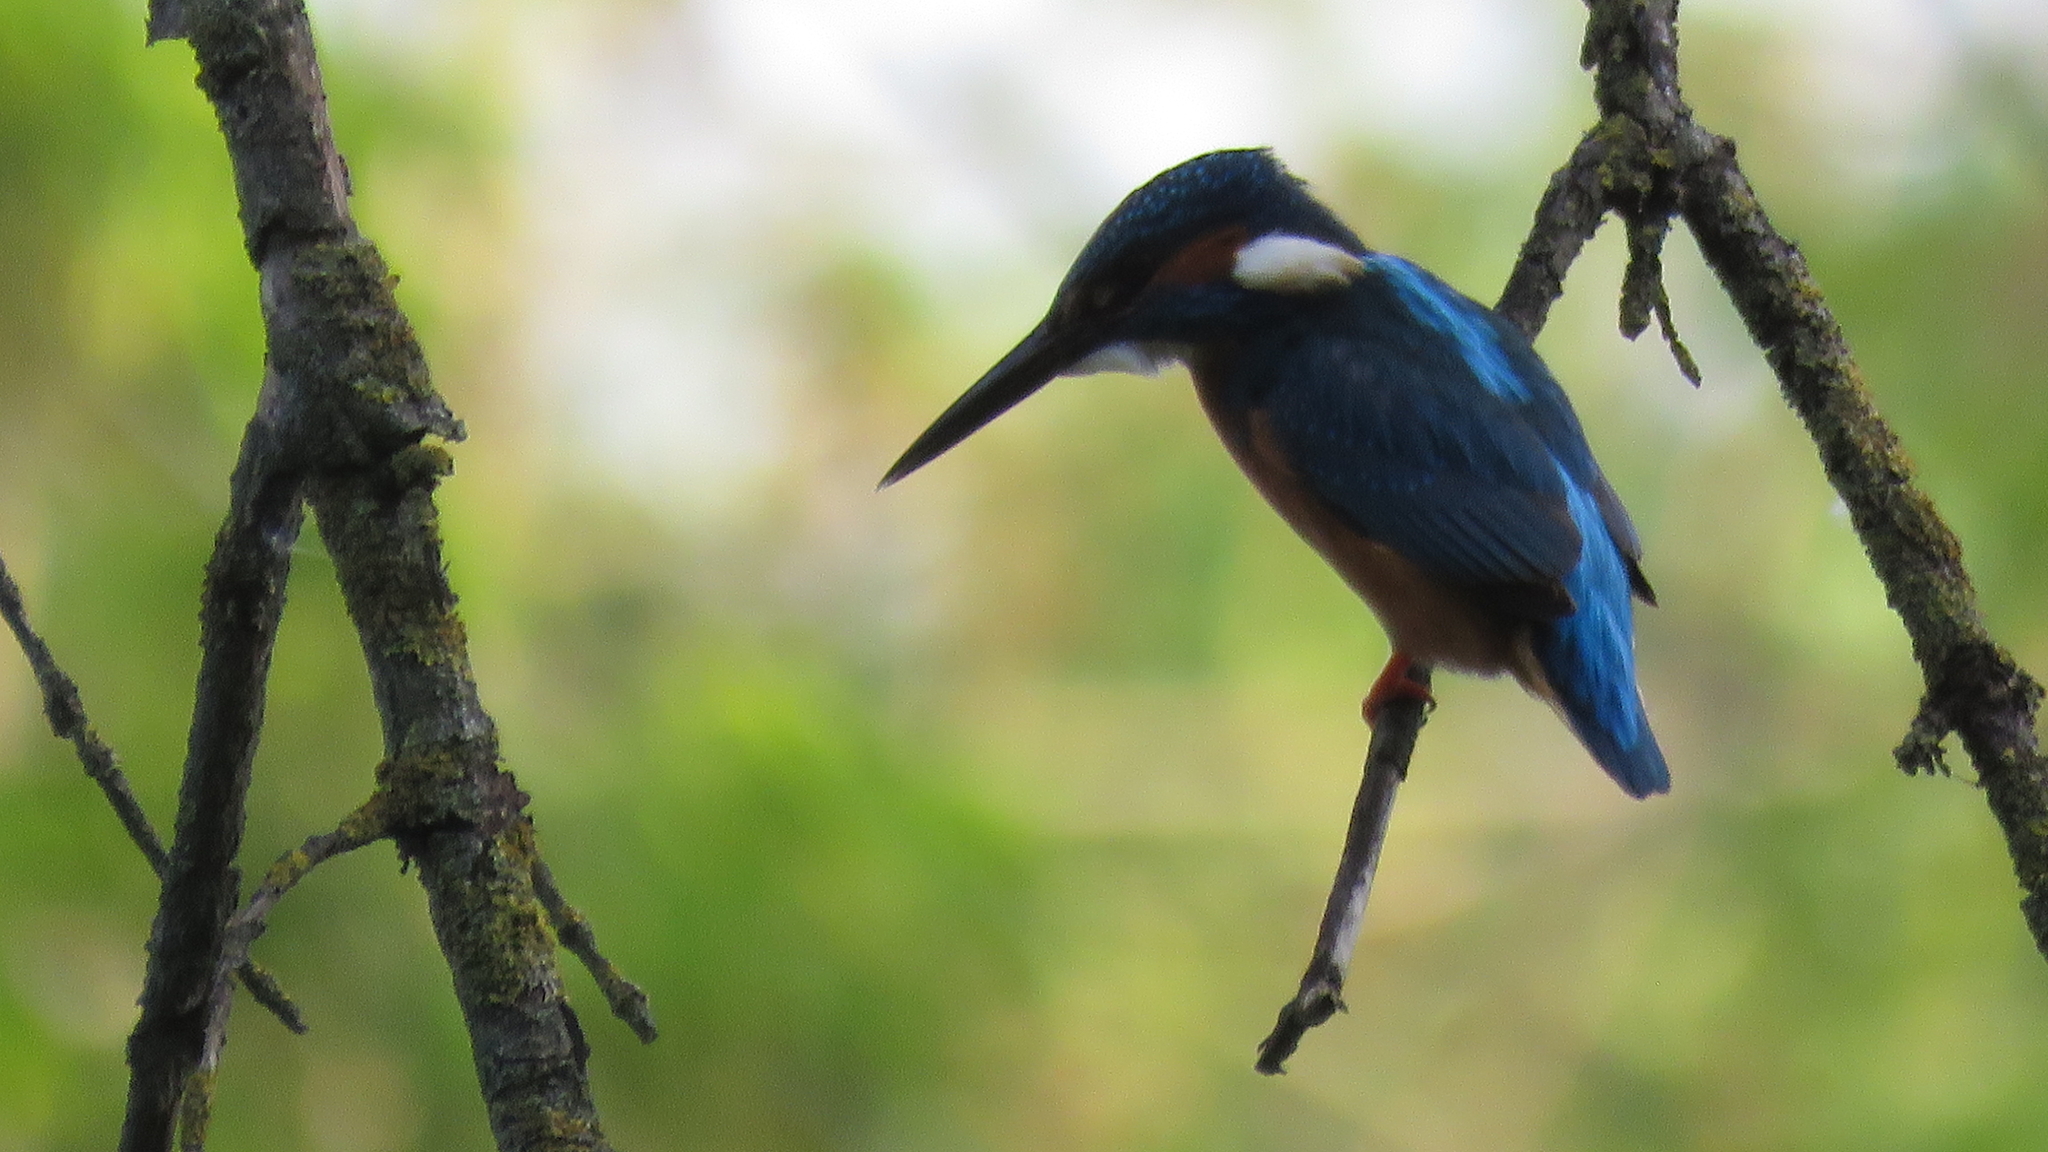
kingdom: Animalia
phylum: Chordata
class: Aves
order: Coraciiformes
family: Alcedinidae
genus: Alcedo
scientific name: Alcedo atthis
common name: Common kingfisher
